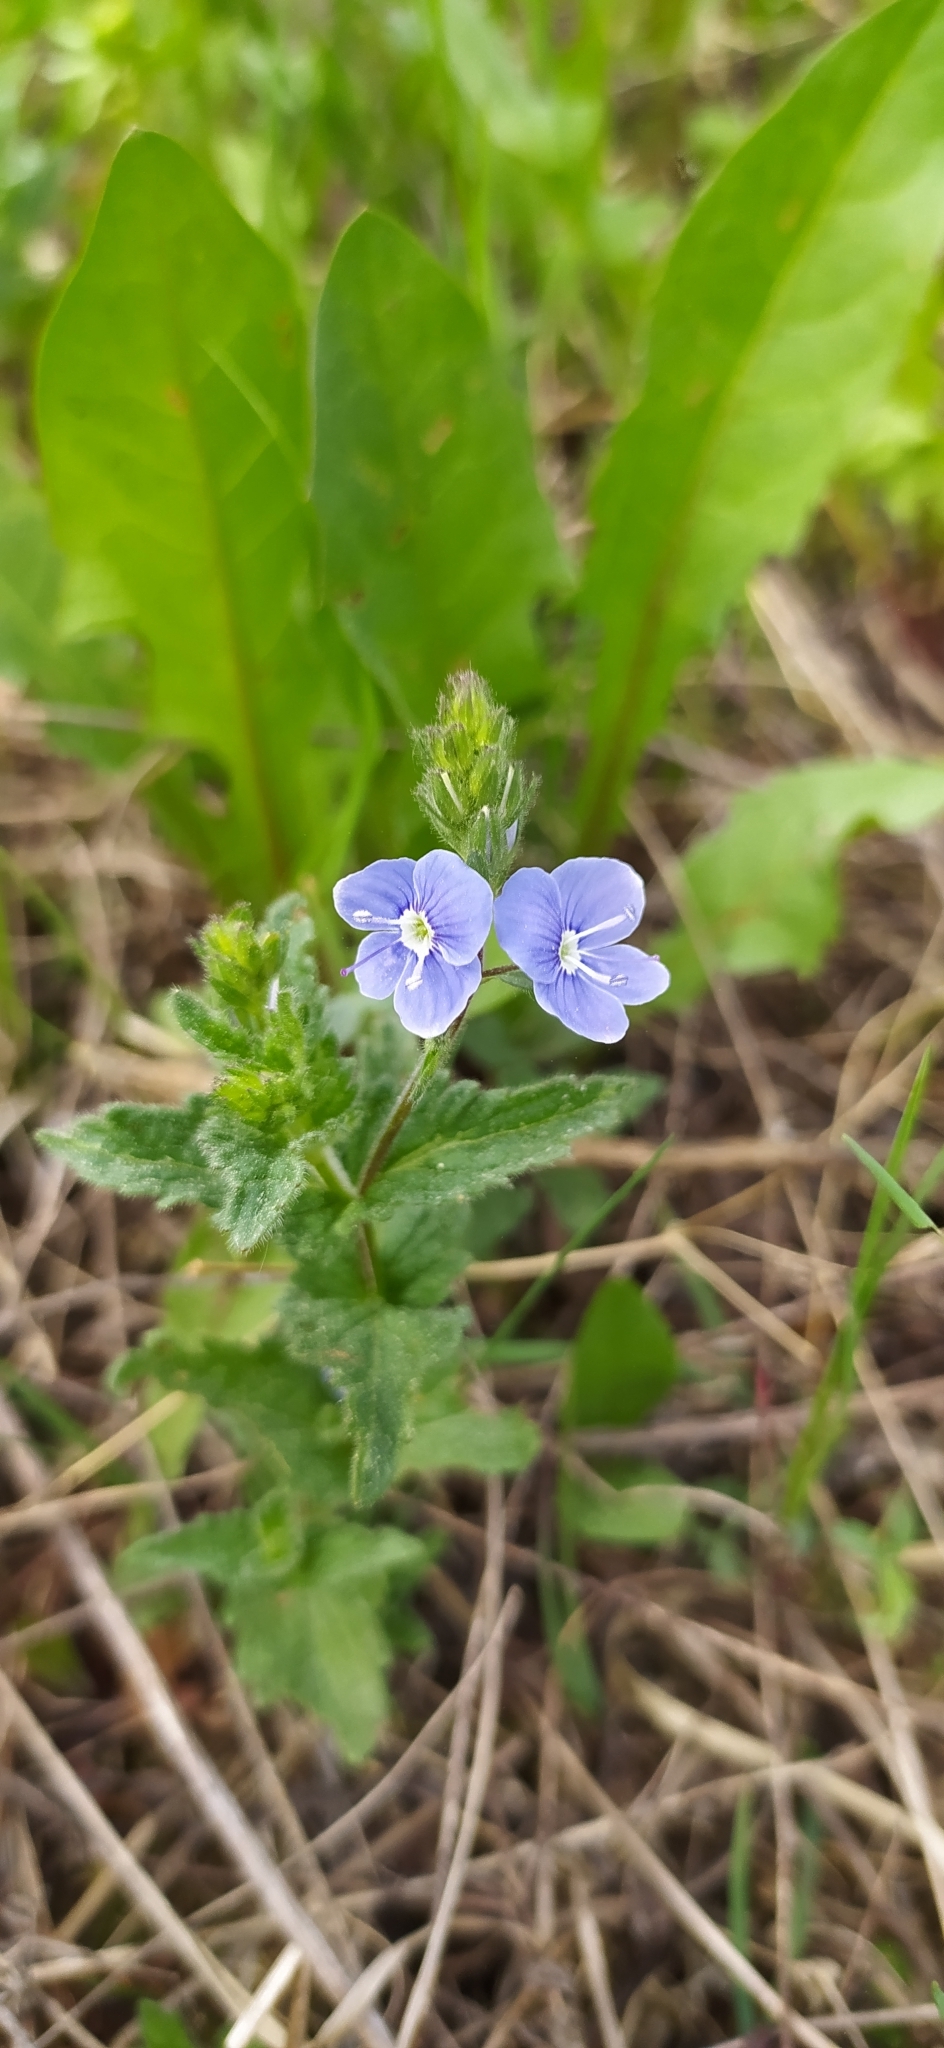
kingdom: Plantae
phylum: Tracheophyta
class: Magnoliopsida
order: Lamiales
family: Plantaginaceae
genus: Veronica
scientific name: Veronica chamaedrys
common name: Germander speedwell
